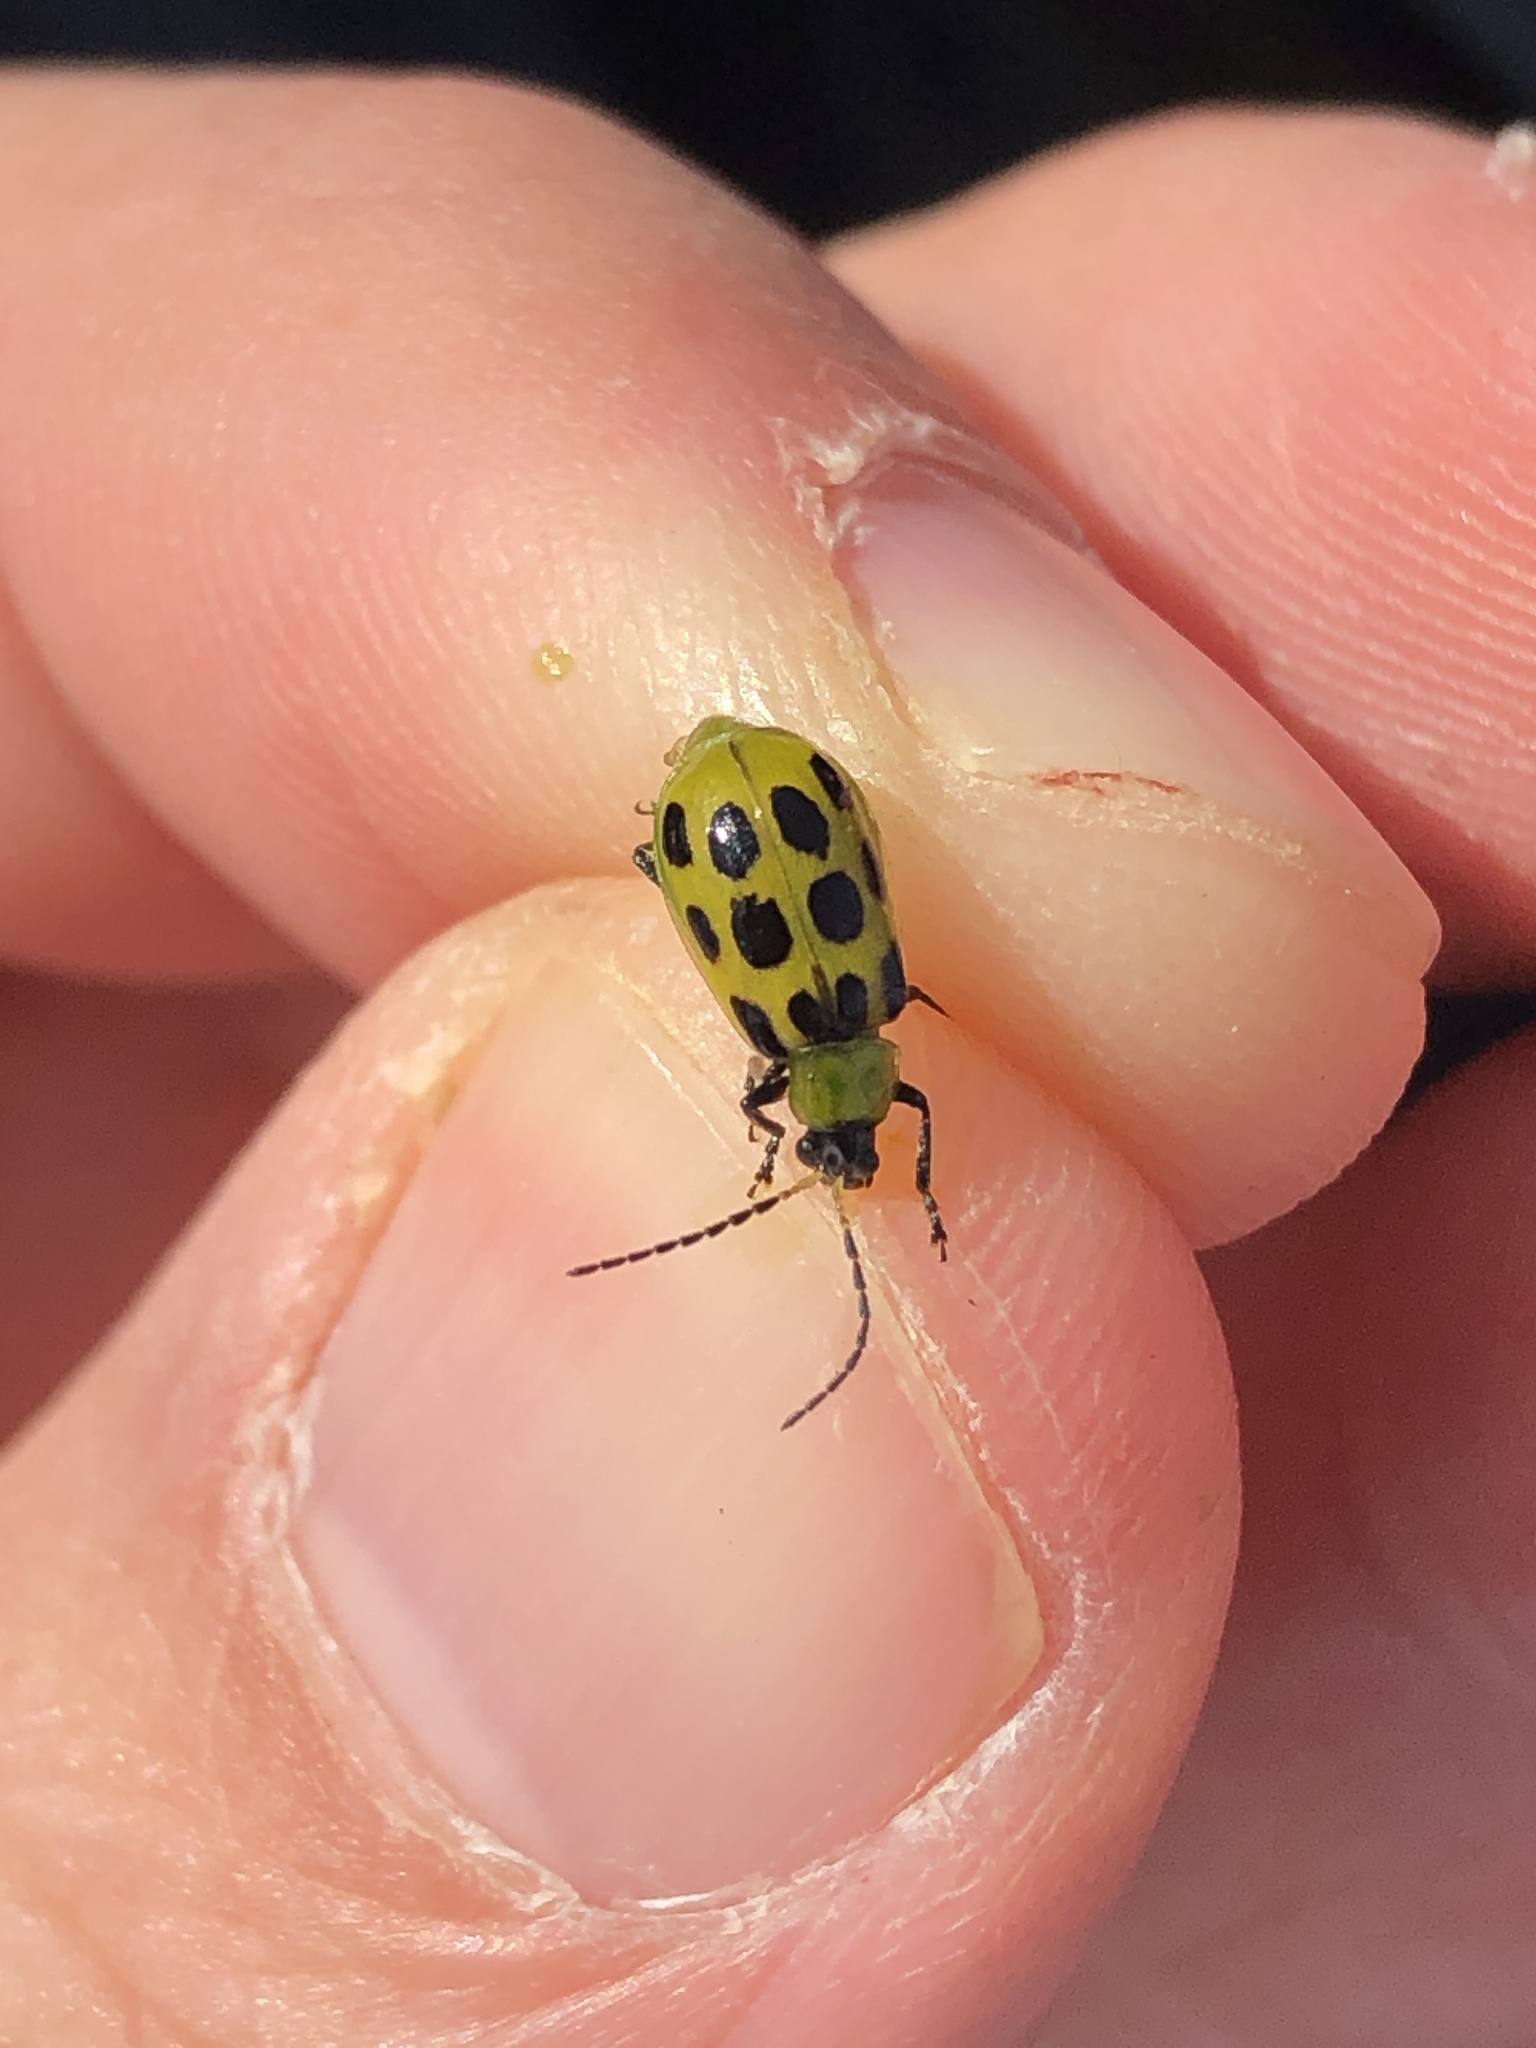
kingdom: Animalia
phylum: Arthropoda
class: Insecta
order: Coleoptera
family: Chrysomelidae
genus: Diabrotica
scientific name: Diabrotica undecimpunctata
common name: Spotted cucumber beetle
